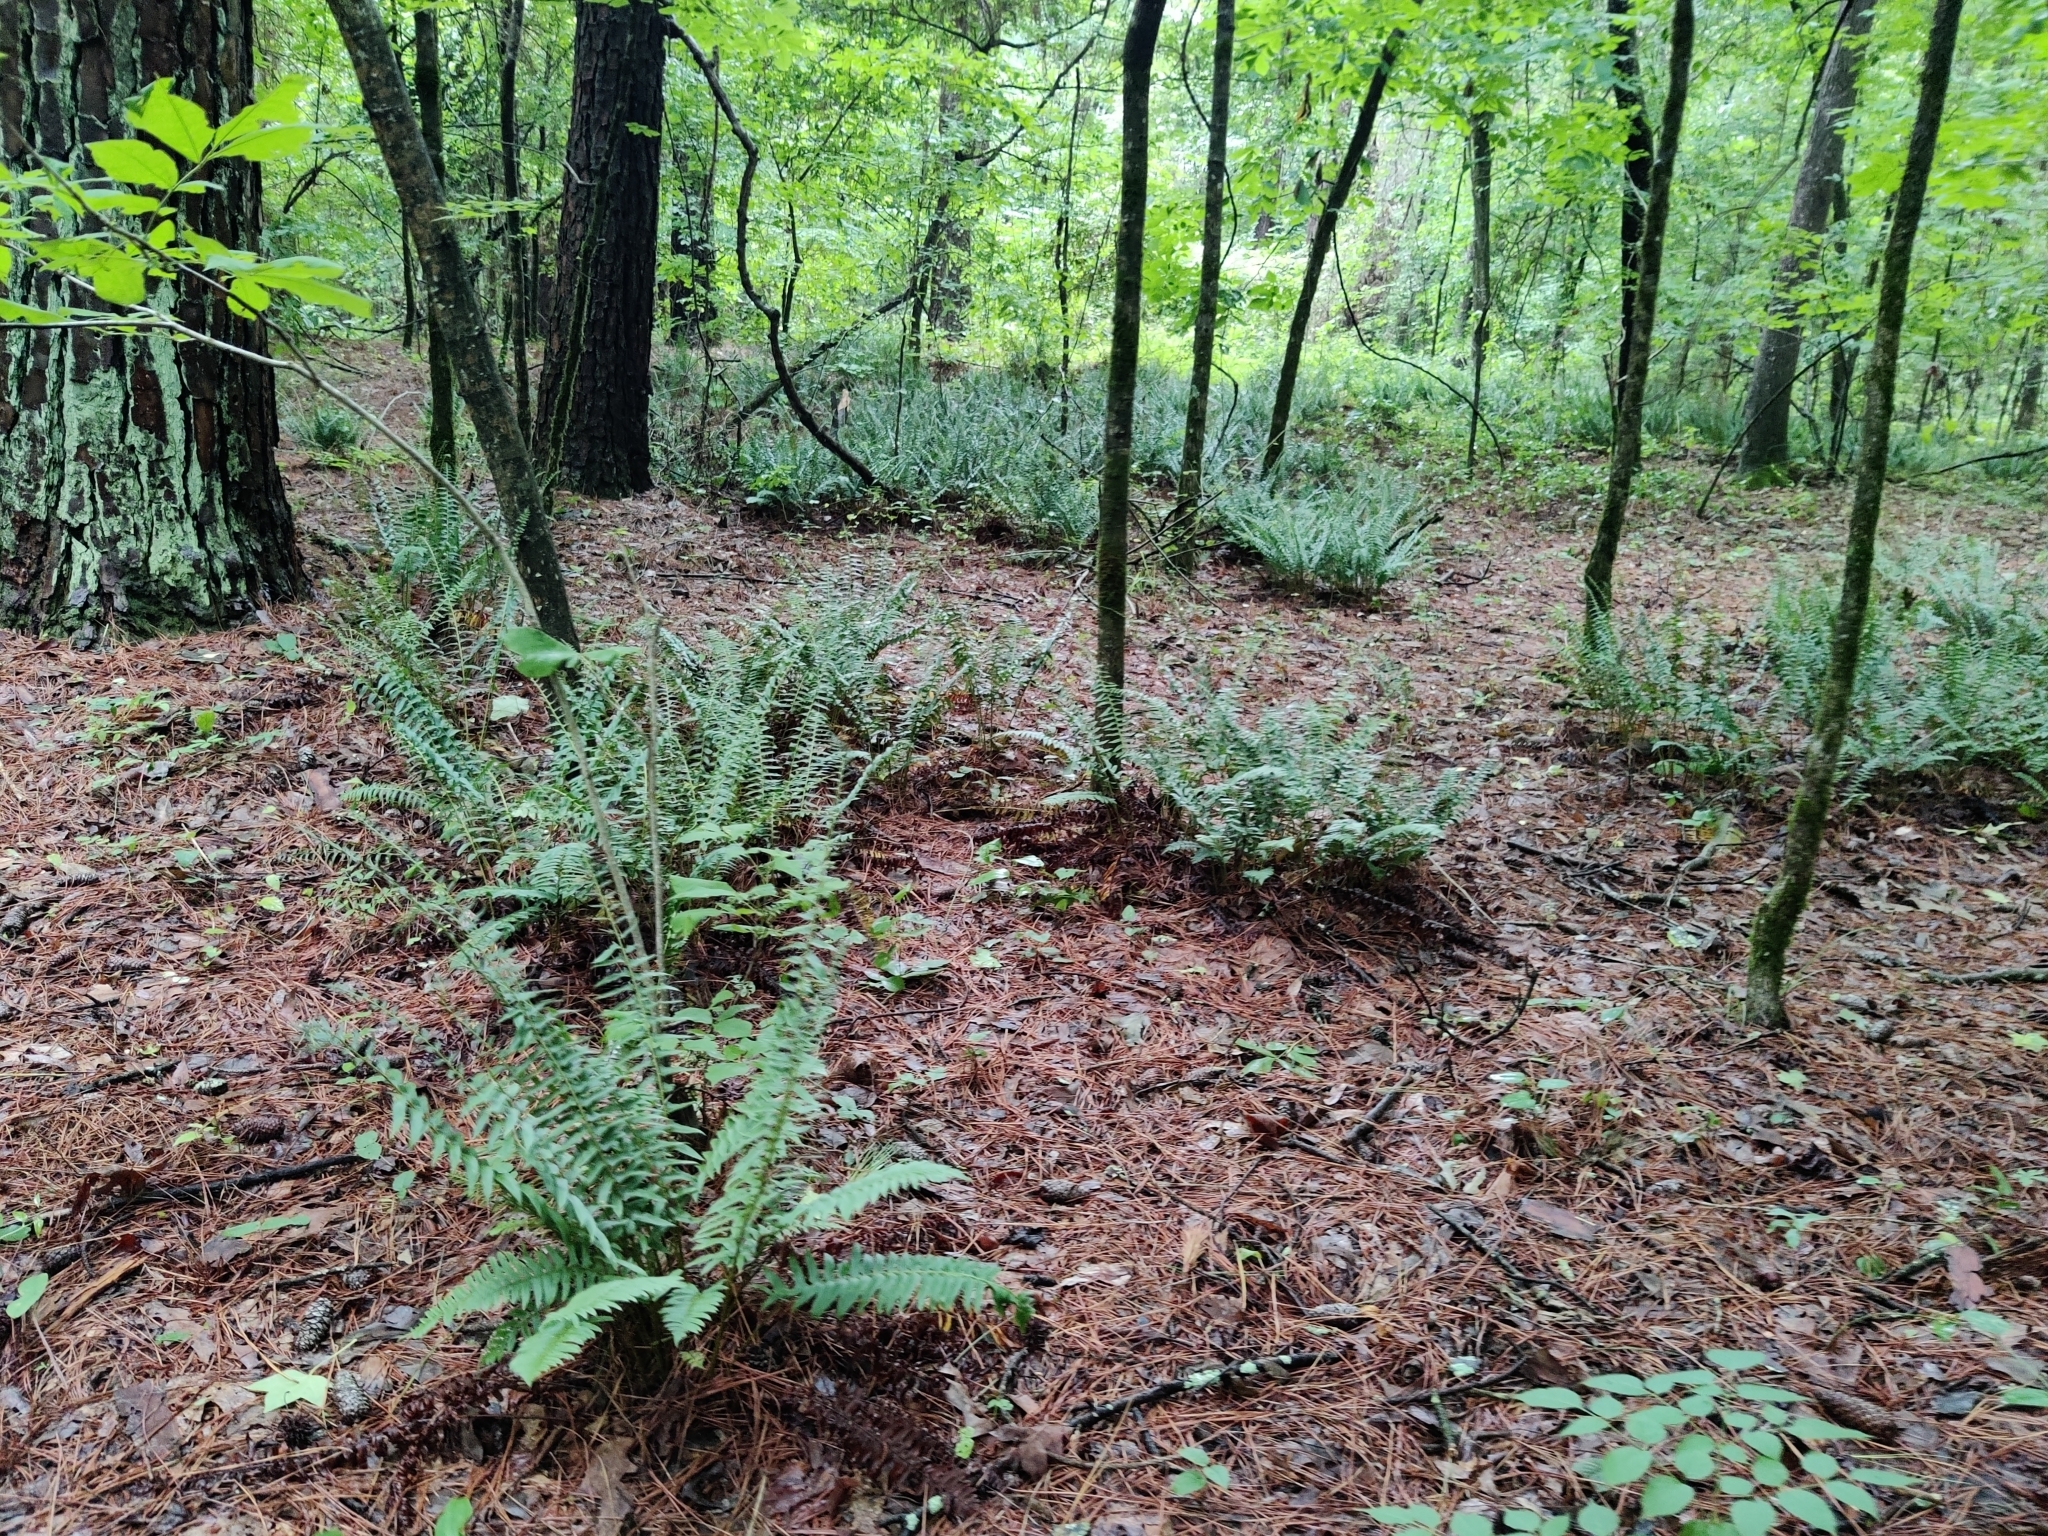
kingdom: Plantae
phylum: Tracheophyta
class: Polypodiopsida
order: Polypodiales
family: Dryopteridaceae
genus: Polystichum
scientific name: Polystichum acrostichoides
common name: Christmas fern
